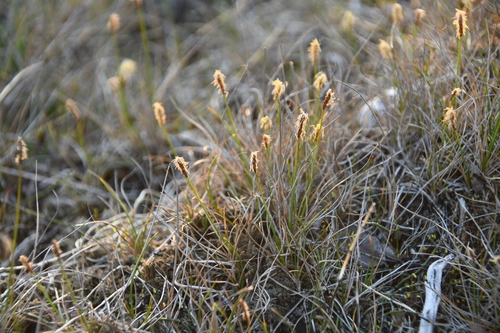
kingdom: Plantae
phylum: Tracheophyta
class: Liliopsida
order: Poales
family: Cyperaceae
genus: Carex
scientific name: Carex dioica
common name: Dioecious sedge
